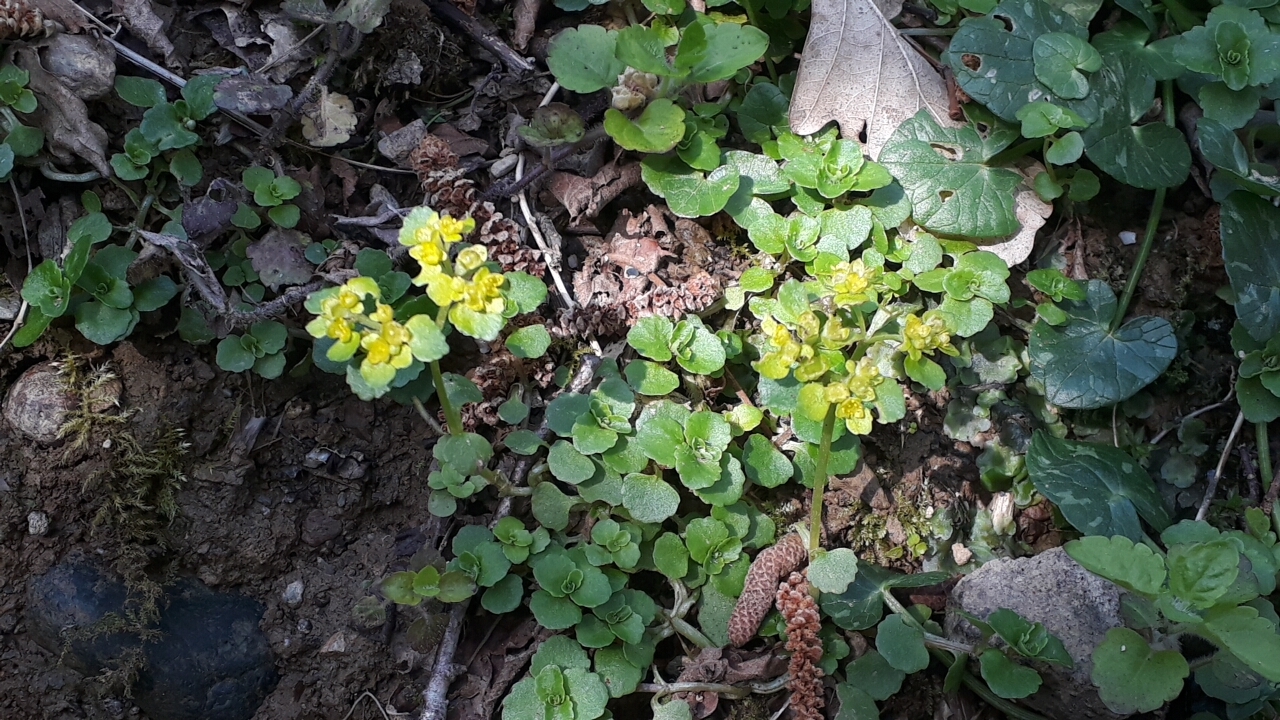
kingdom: Plantae
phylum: Tracheophyta
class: Magnoliopsida
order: Saxifragales
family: Saxifragaceae
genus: Chrysosplenium
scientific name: Chrysosplenium oppositifolium
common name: Opposite-leaved golden-saxifrage
